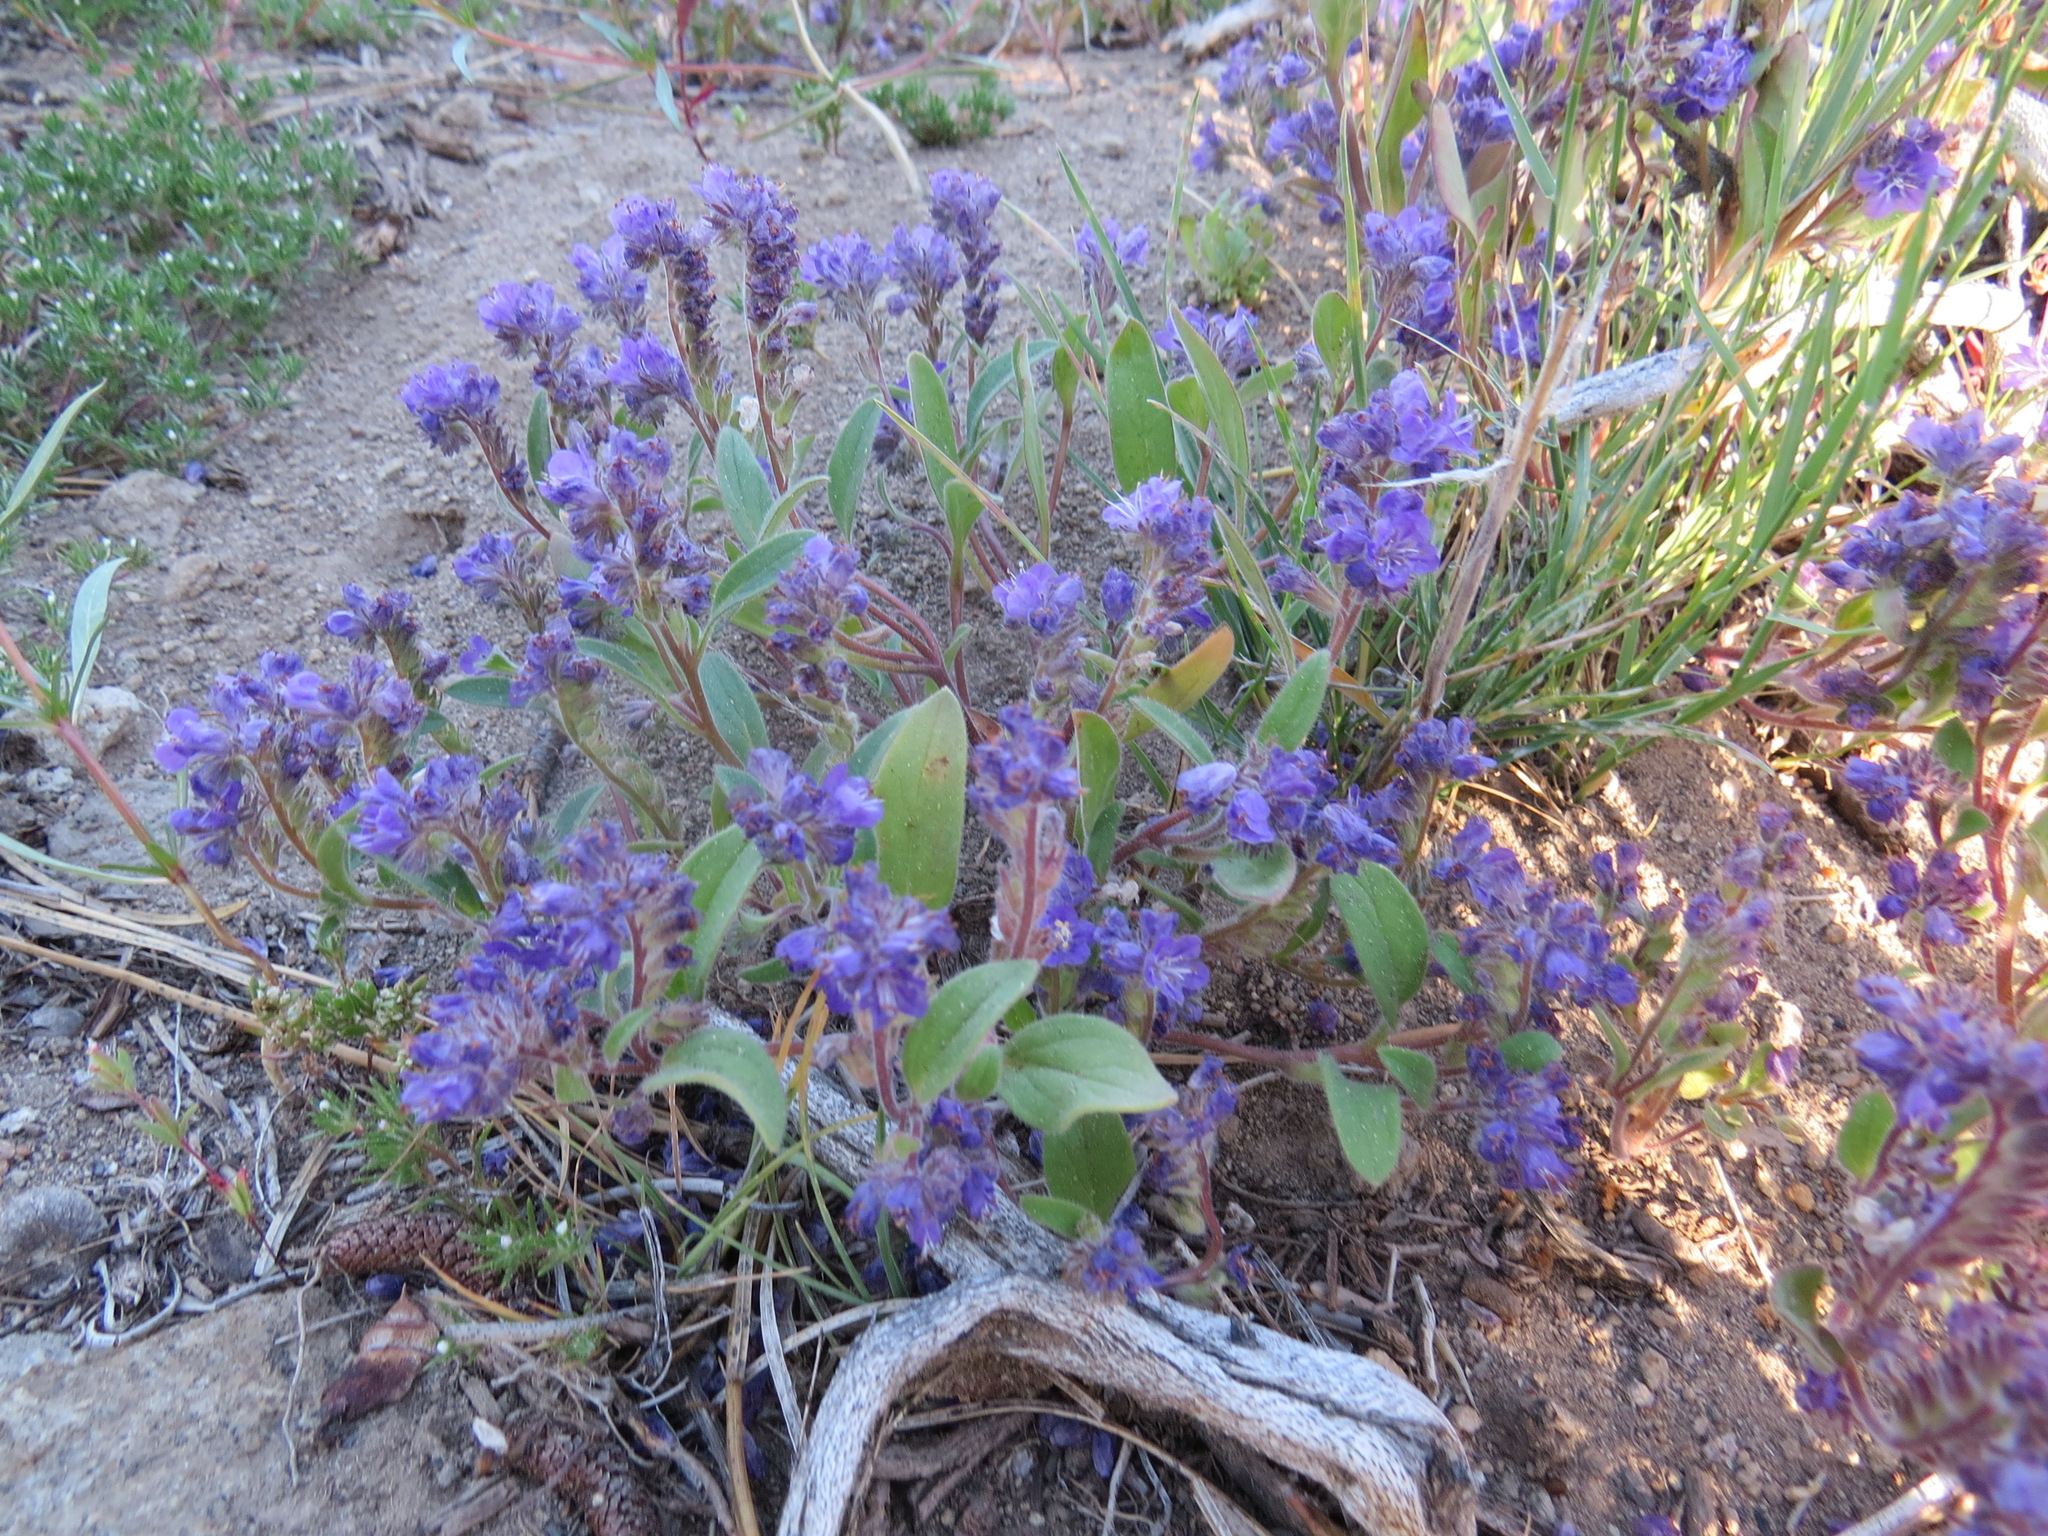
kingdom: Plantae
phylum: Tracheophyta
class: Magnoliopsida
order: Boraginales
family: Hydrophyllaceae
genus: Phacelia
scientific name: Phacelia humilis
